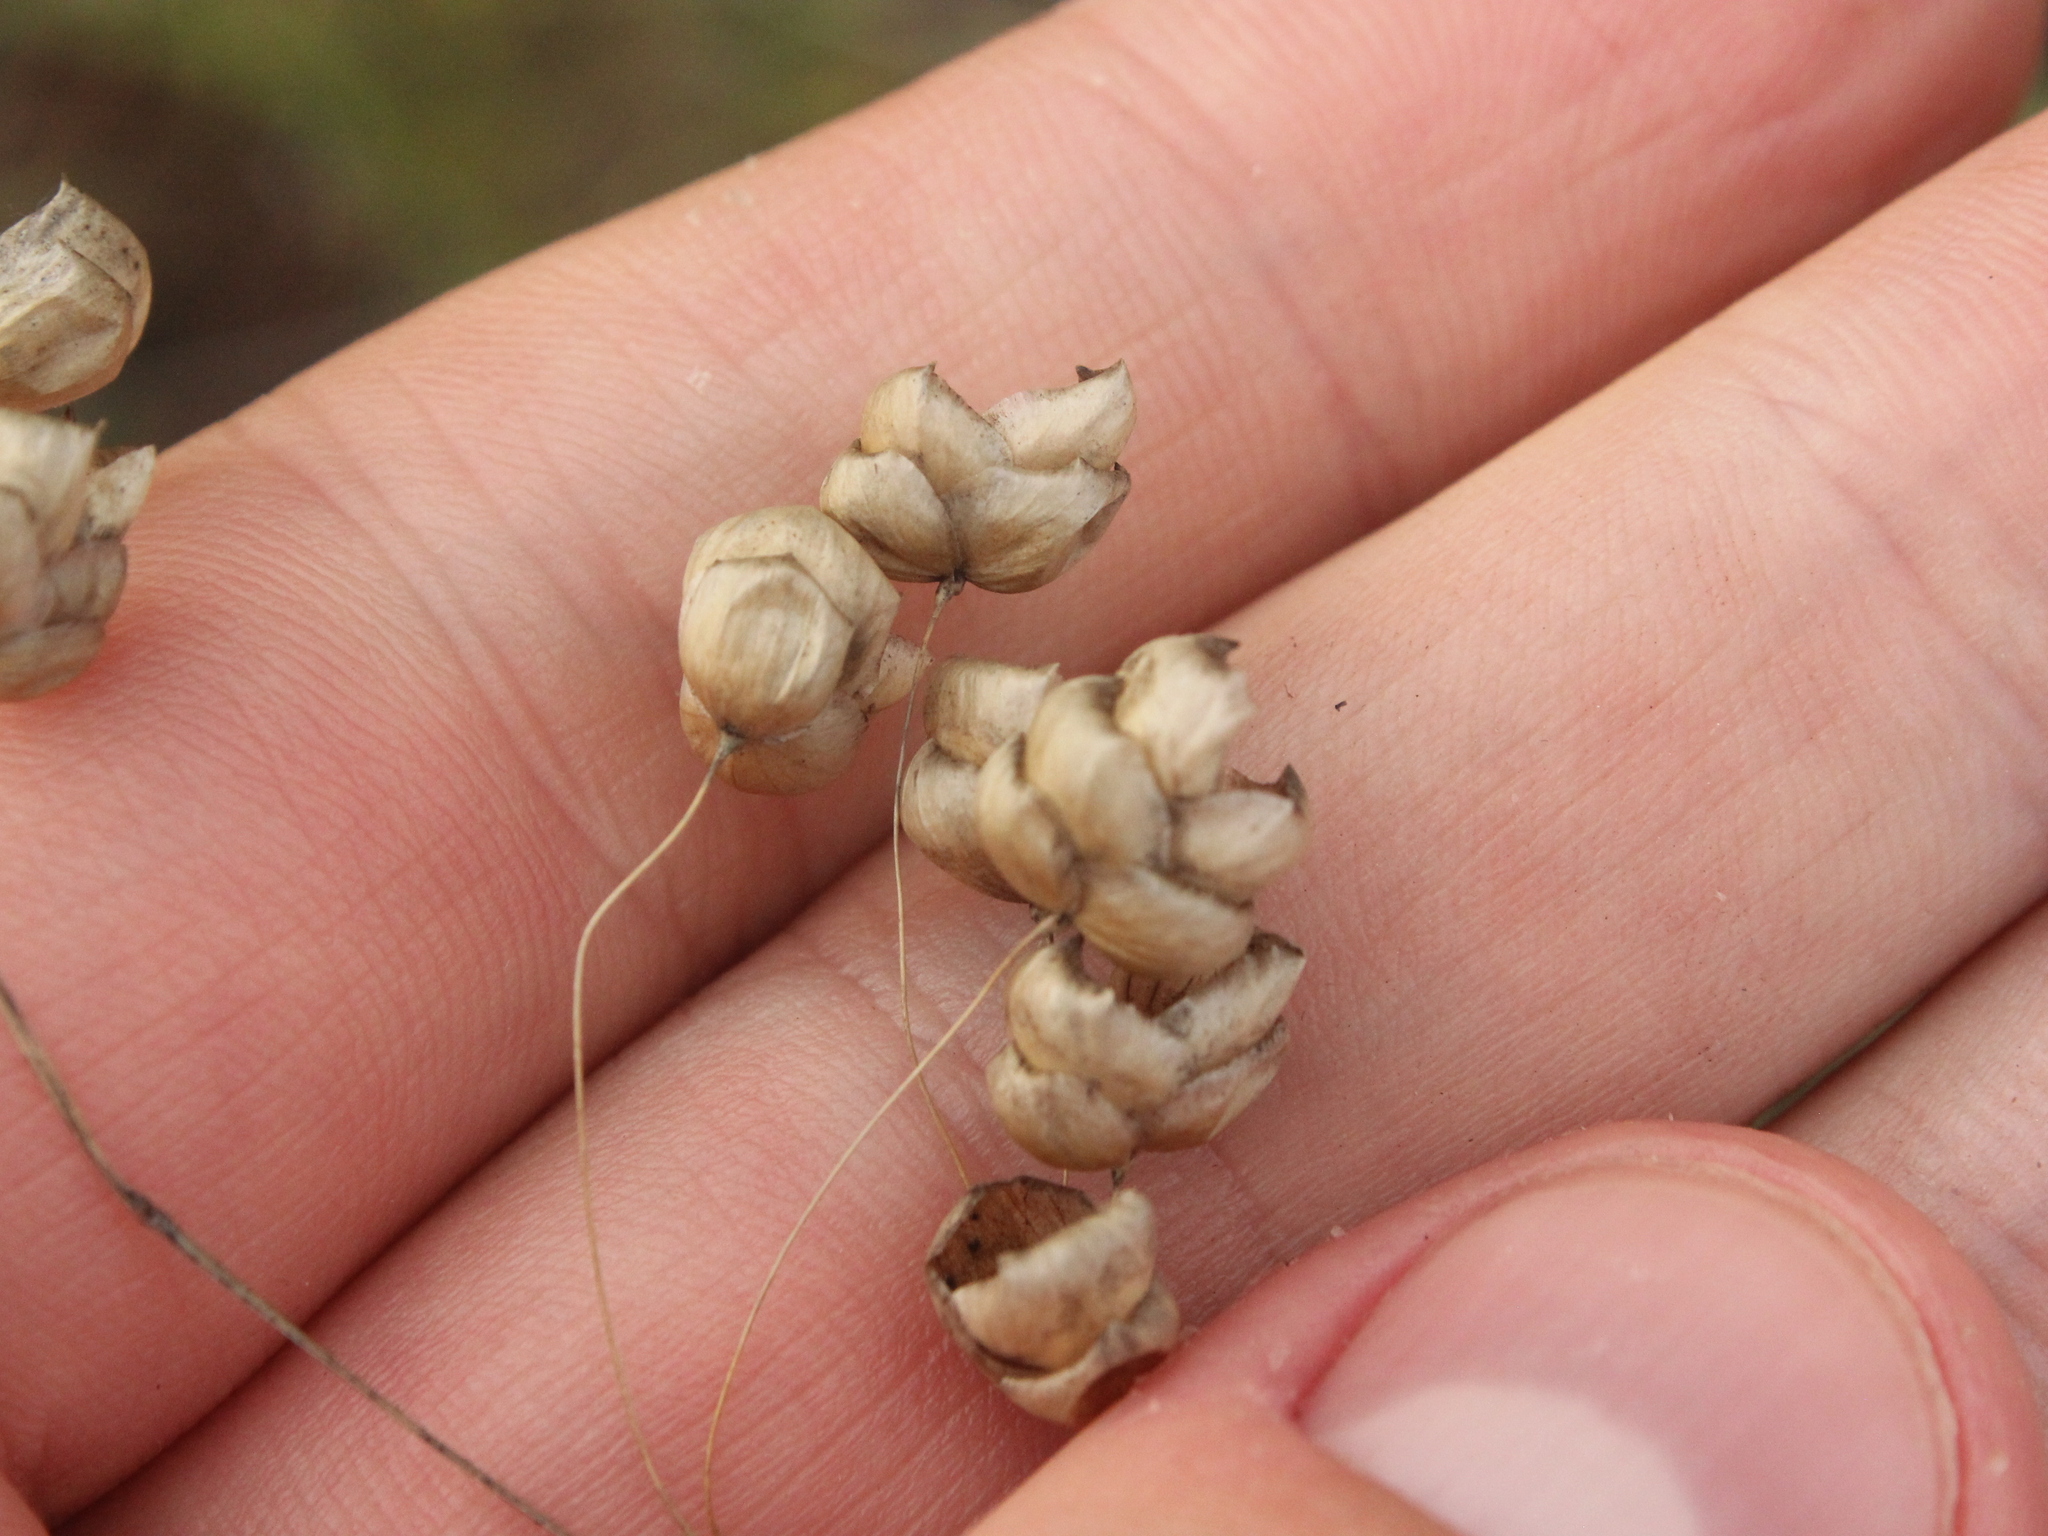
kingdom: Plantae
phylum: Tracheophyta
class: Liliopsida
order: Poales
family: Poaceae
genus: Briza
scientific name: Briza maxima
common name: Big quakinggrass
